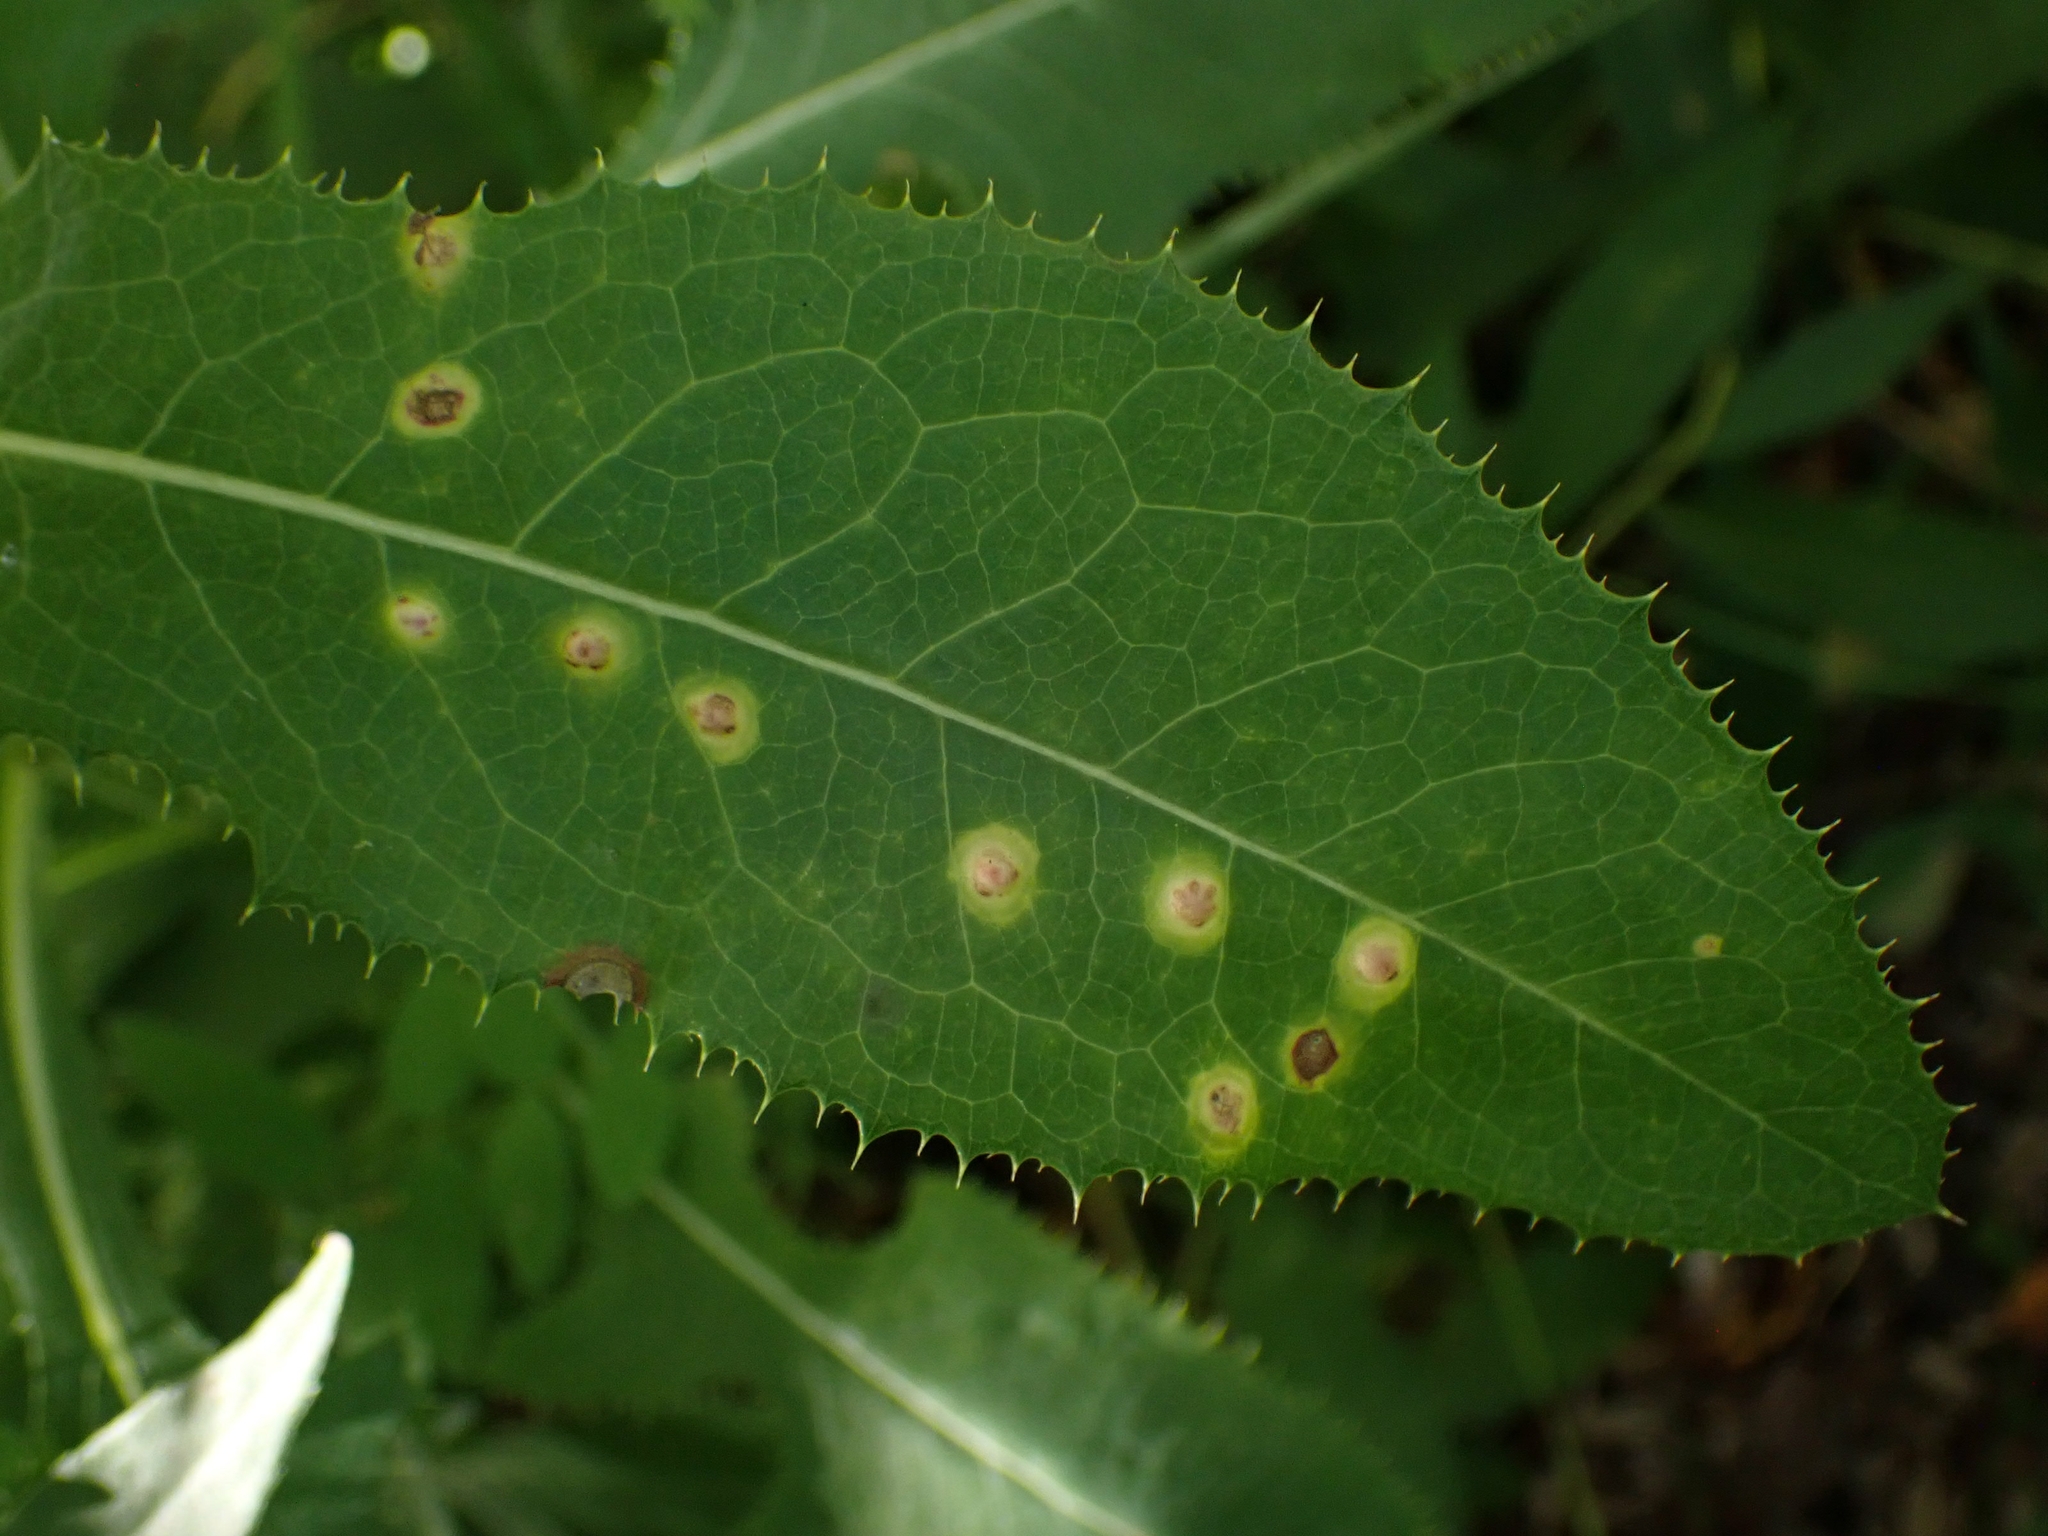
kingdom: Animalia
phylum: Arthropoda
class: Insecta
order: Diptera
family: Cecidomyiidae
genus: Cystiphora
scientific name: Cystiphora sonchi
